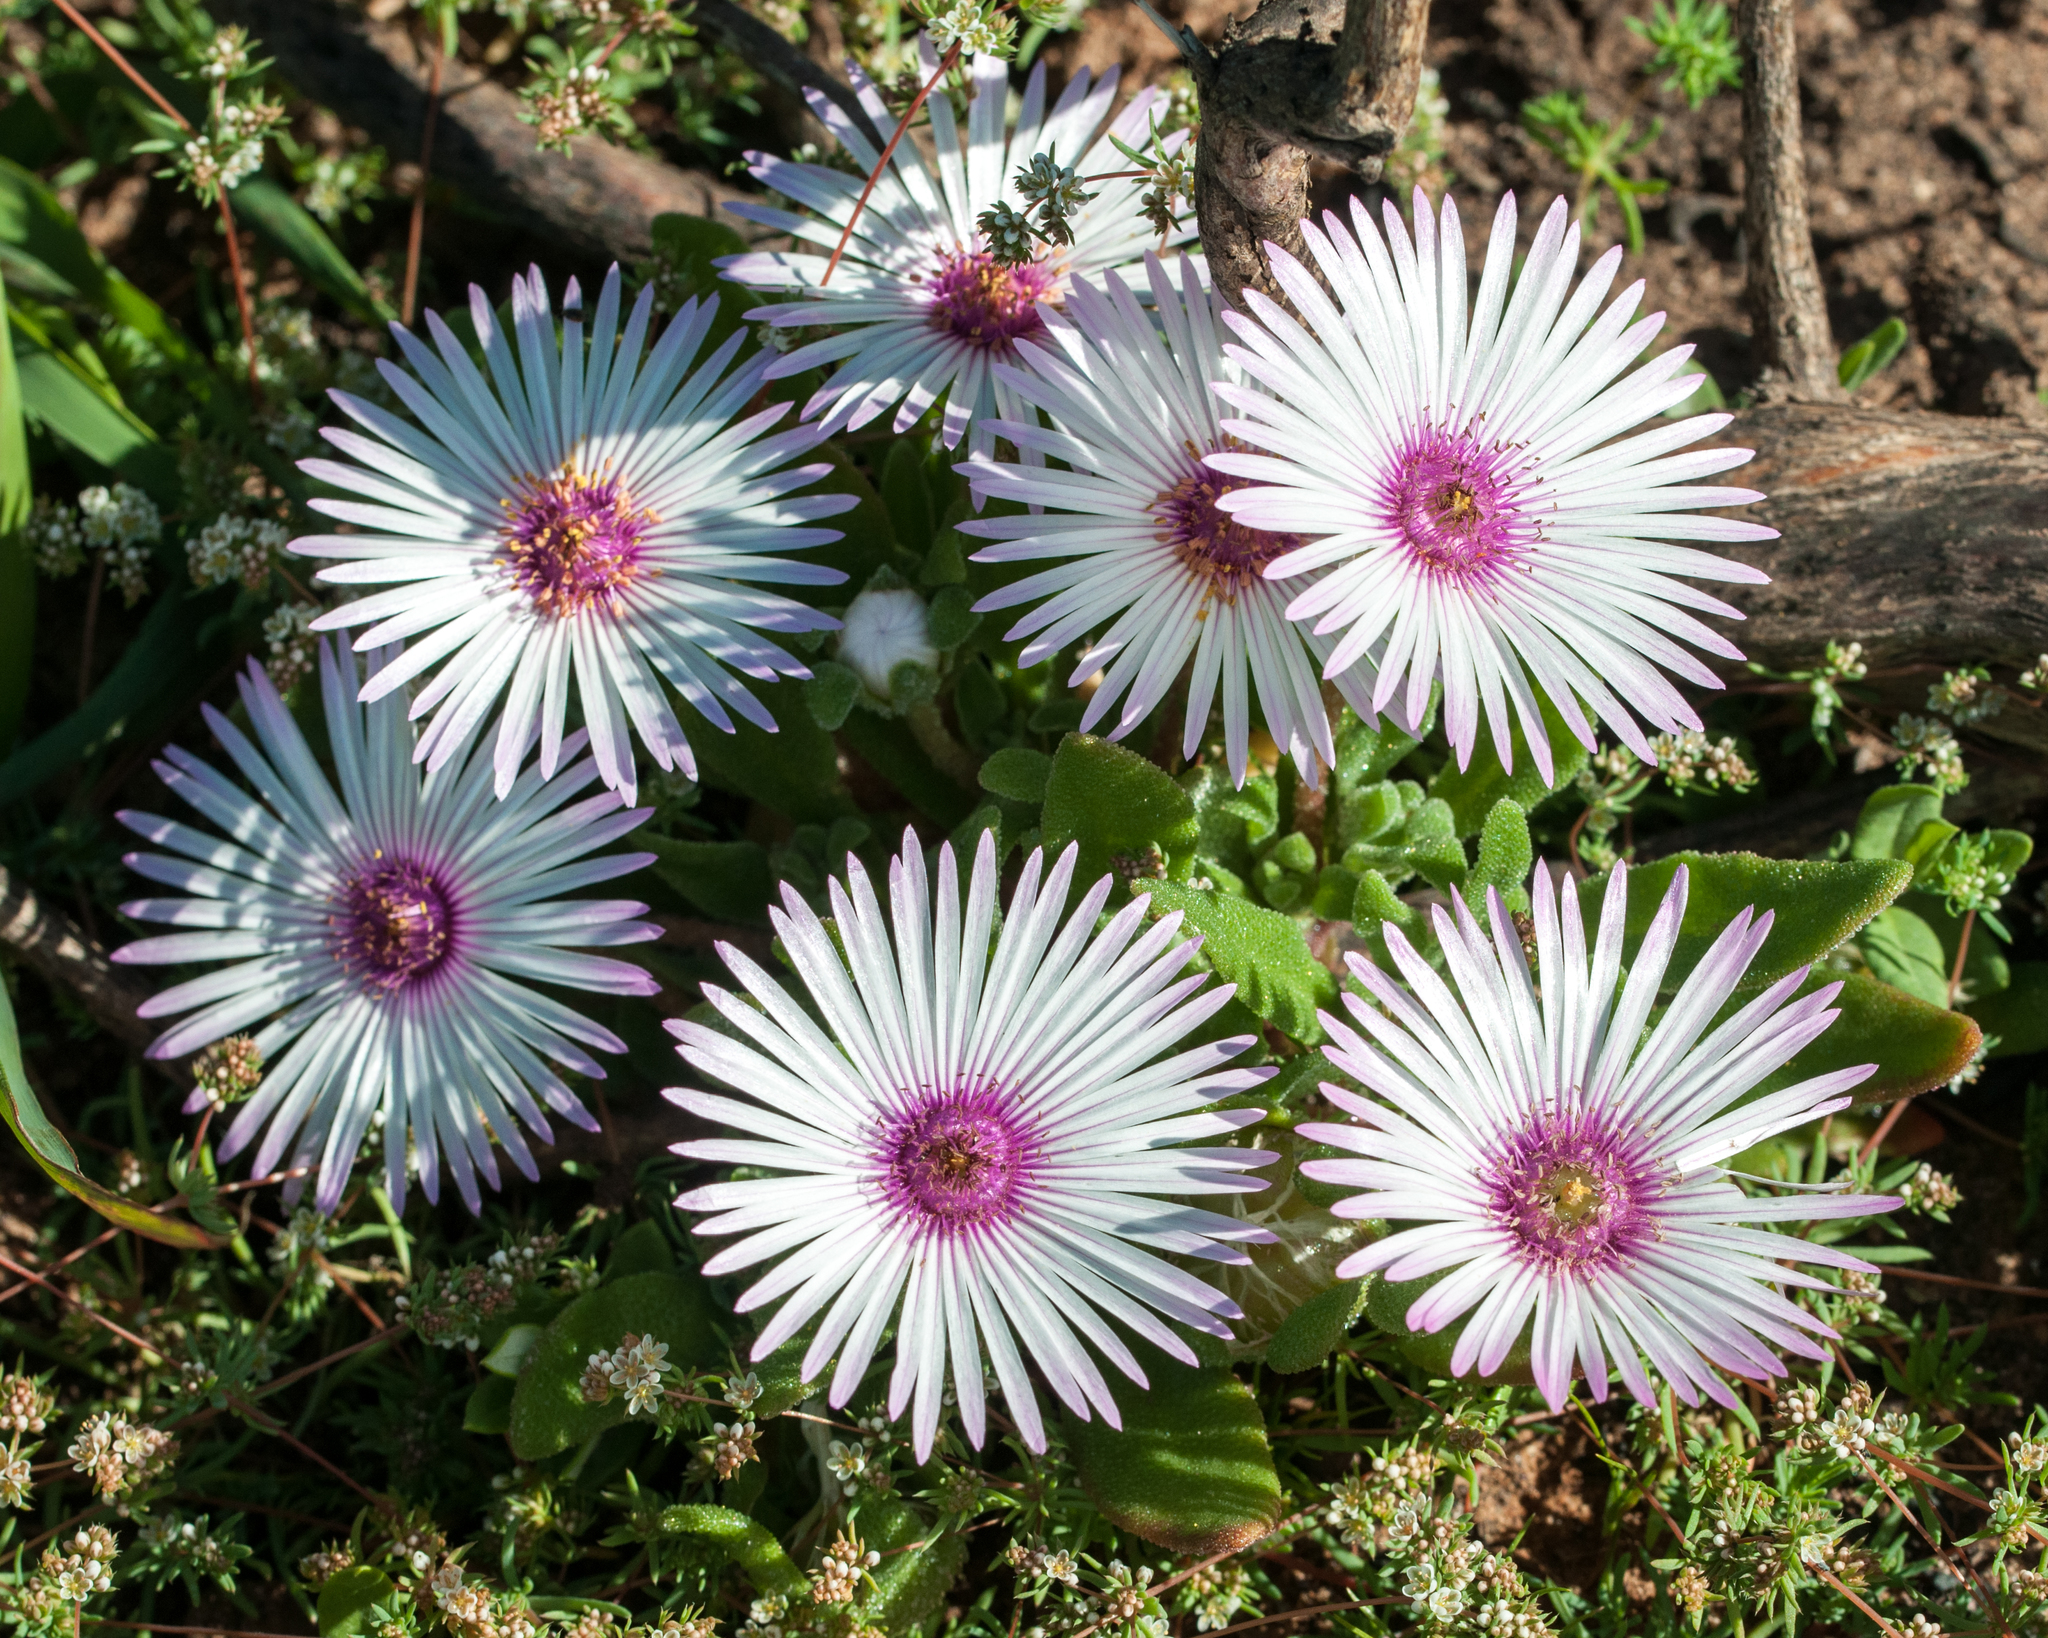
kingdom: Plantae
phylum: Tracheophyta
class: Magnoliopsida
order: Caryophyllales
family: Aizoaceae
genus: Cleretum
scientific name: Cleretum bellidiforme
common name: Livingstone daisy
